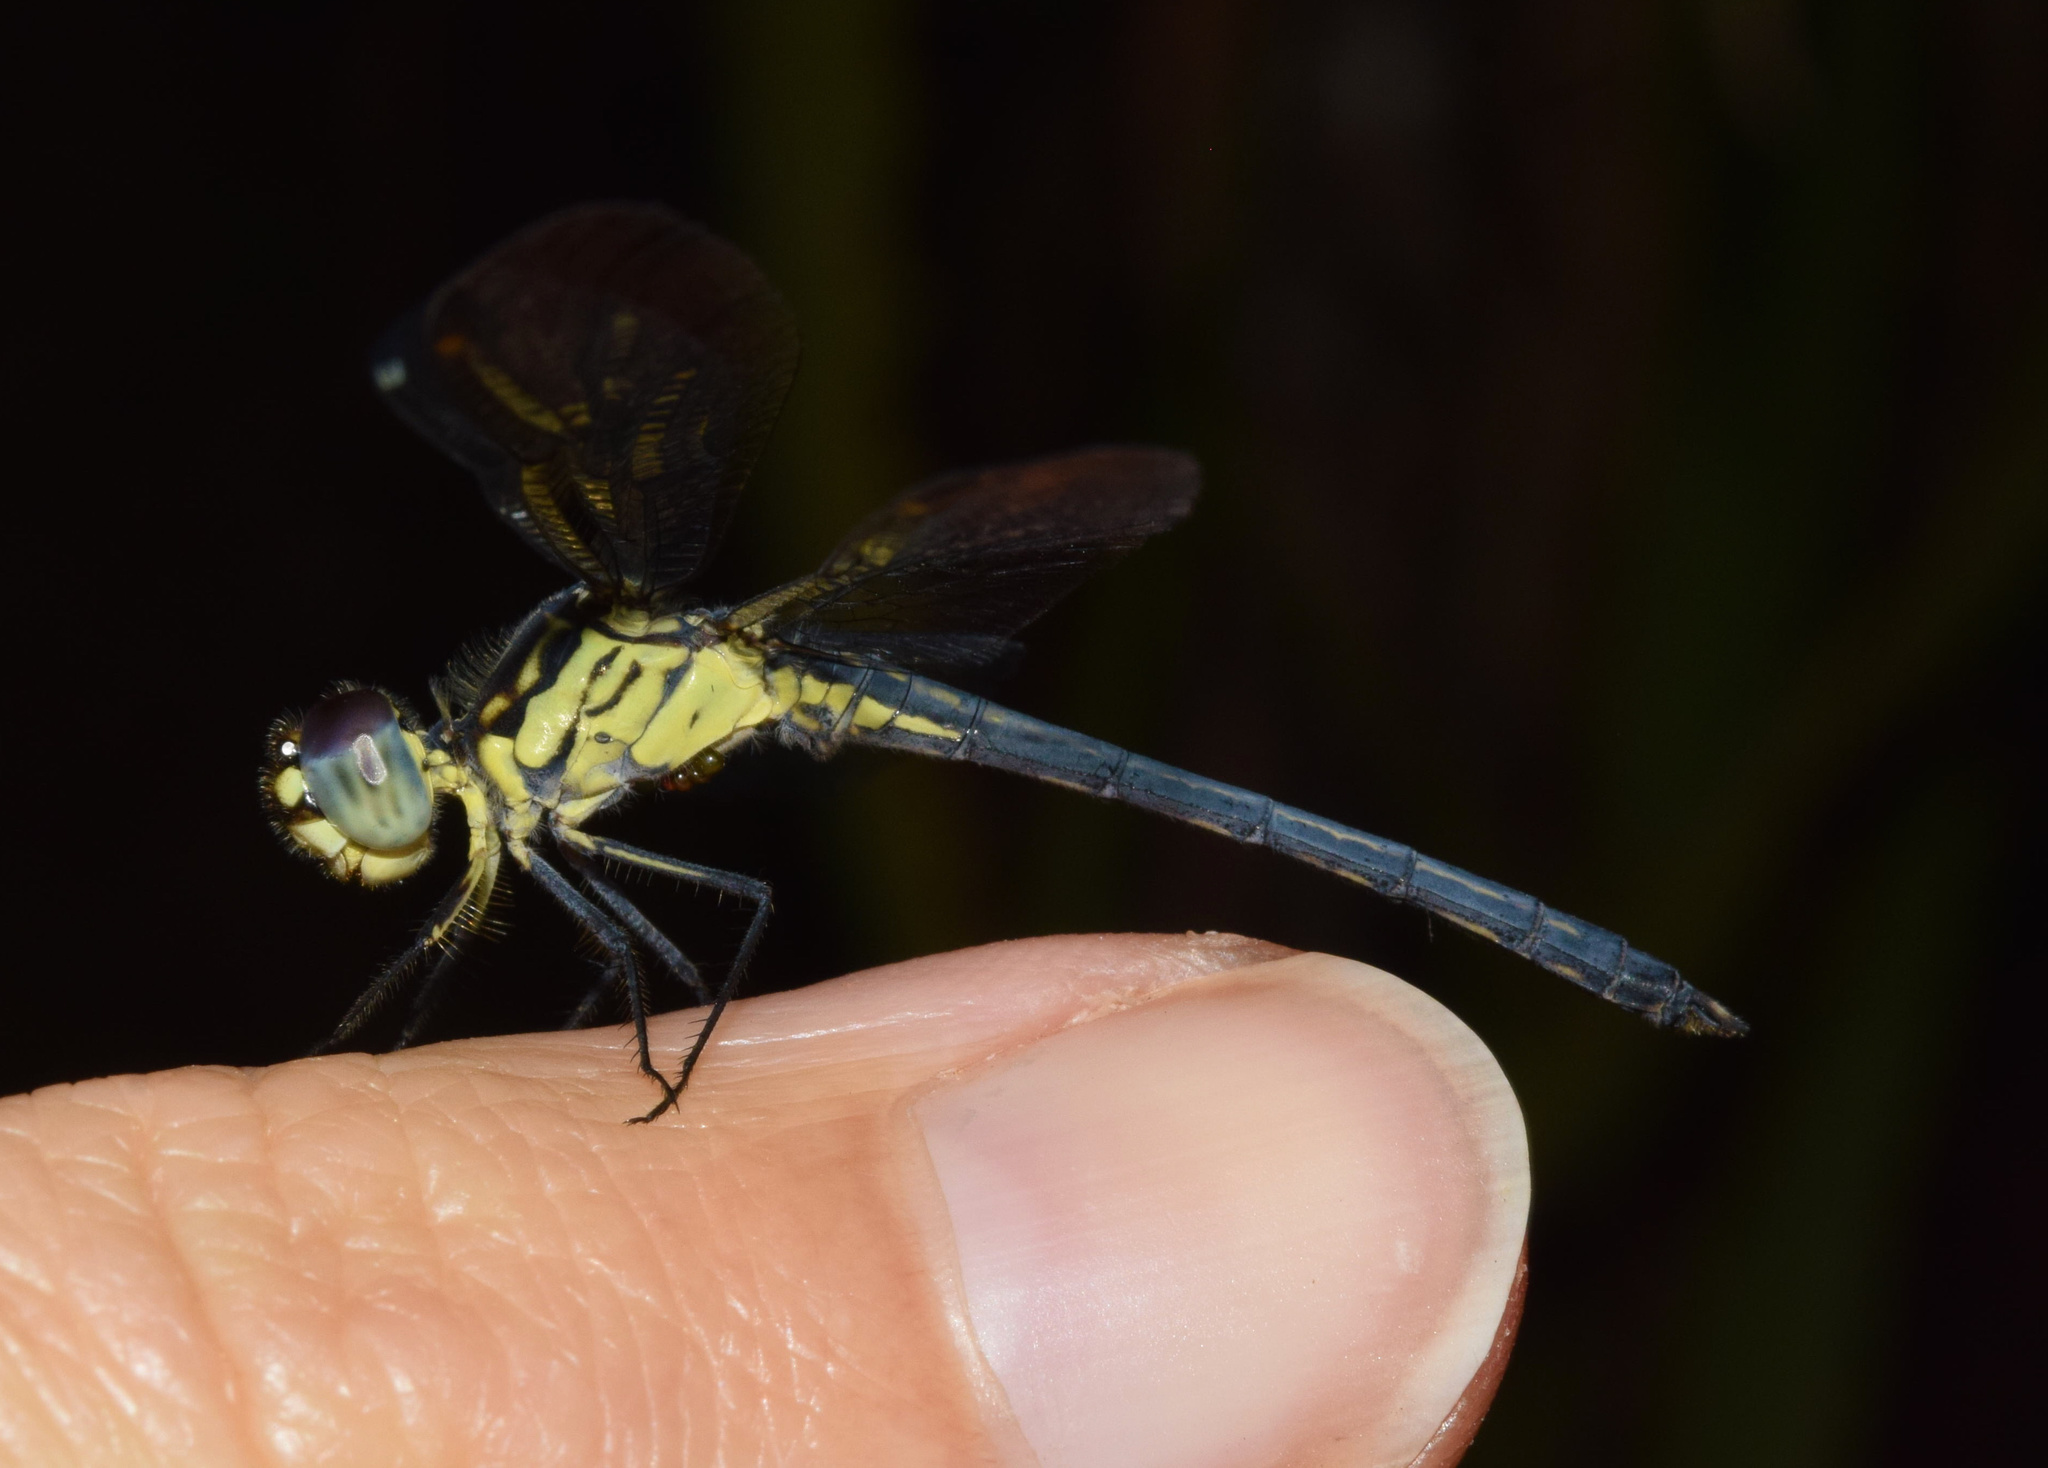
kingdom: Animalia
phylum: Arthropoda
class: Insecta
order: Odonata
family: Libellulidae
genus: Hemistigma
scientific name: Hemistigma albipunctum
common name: African pied-spot
